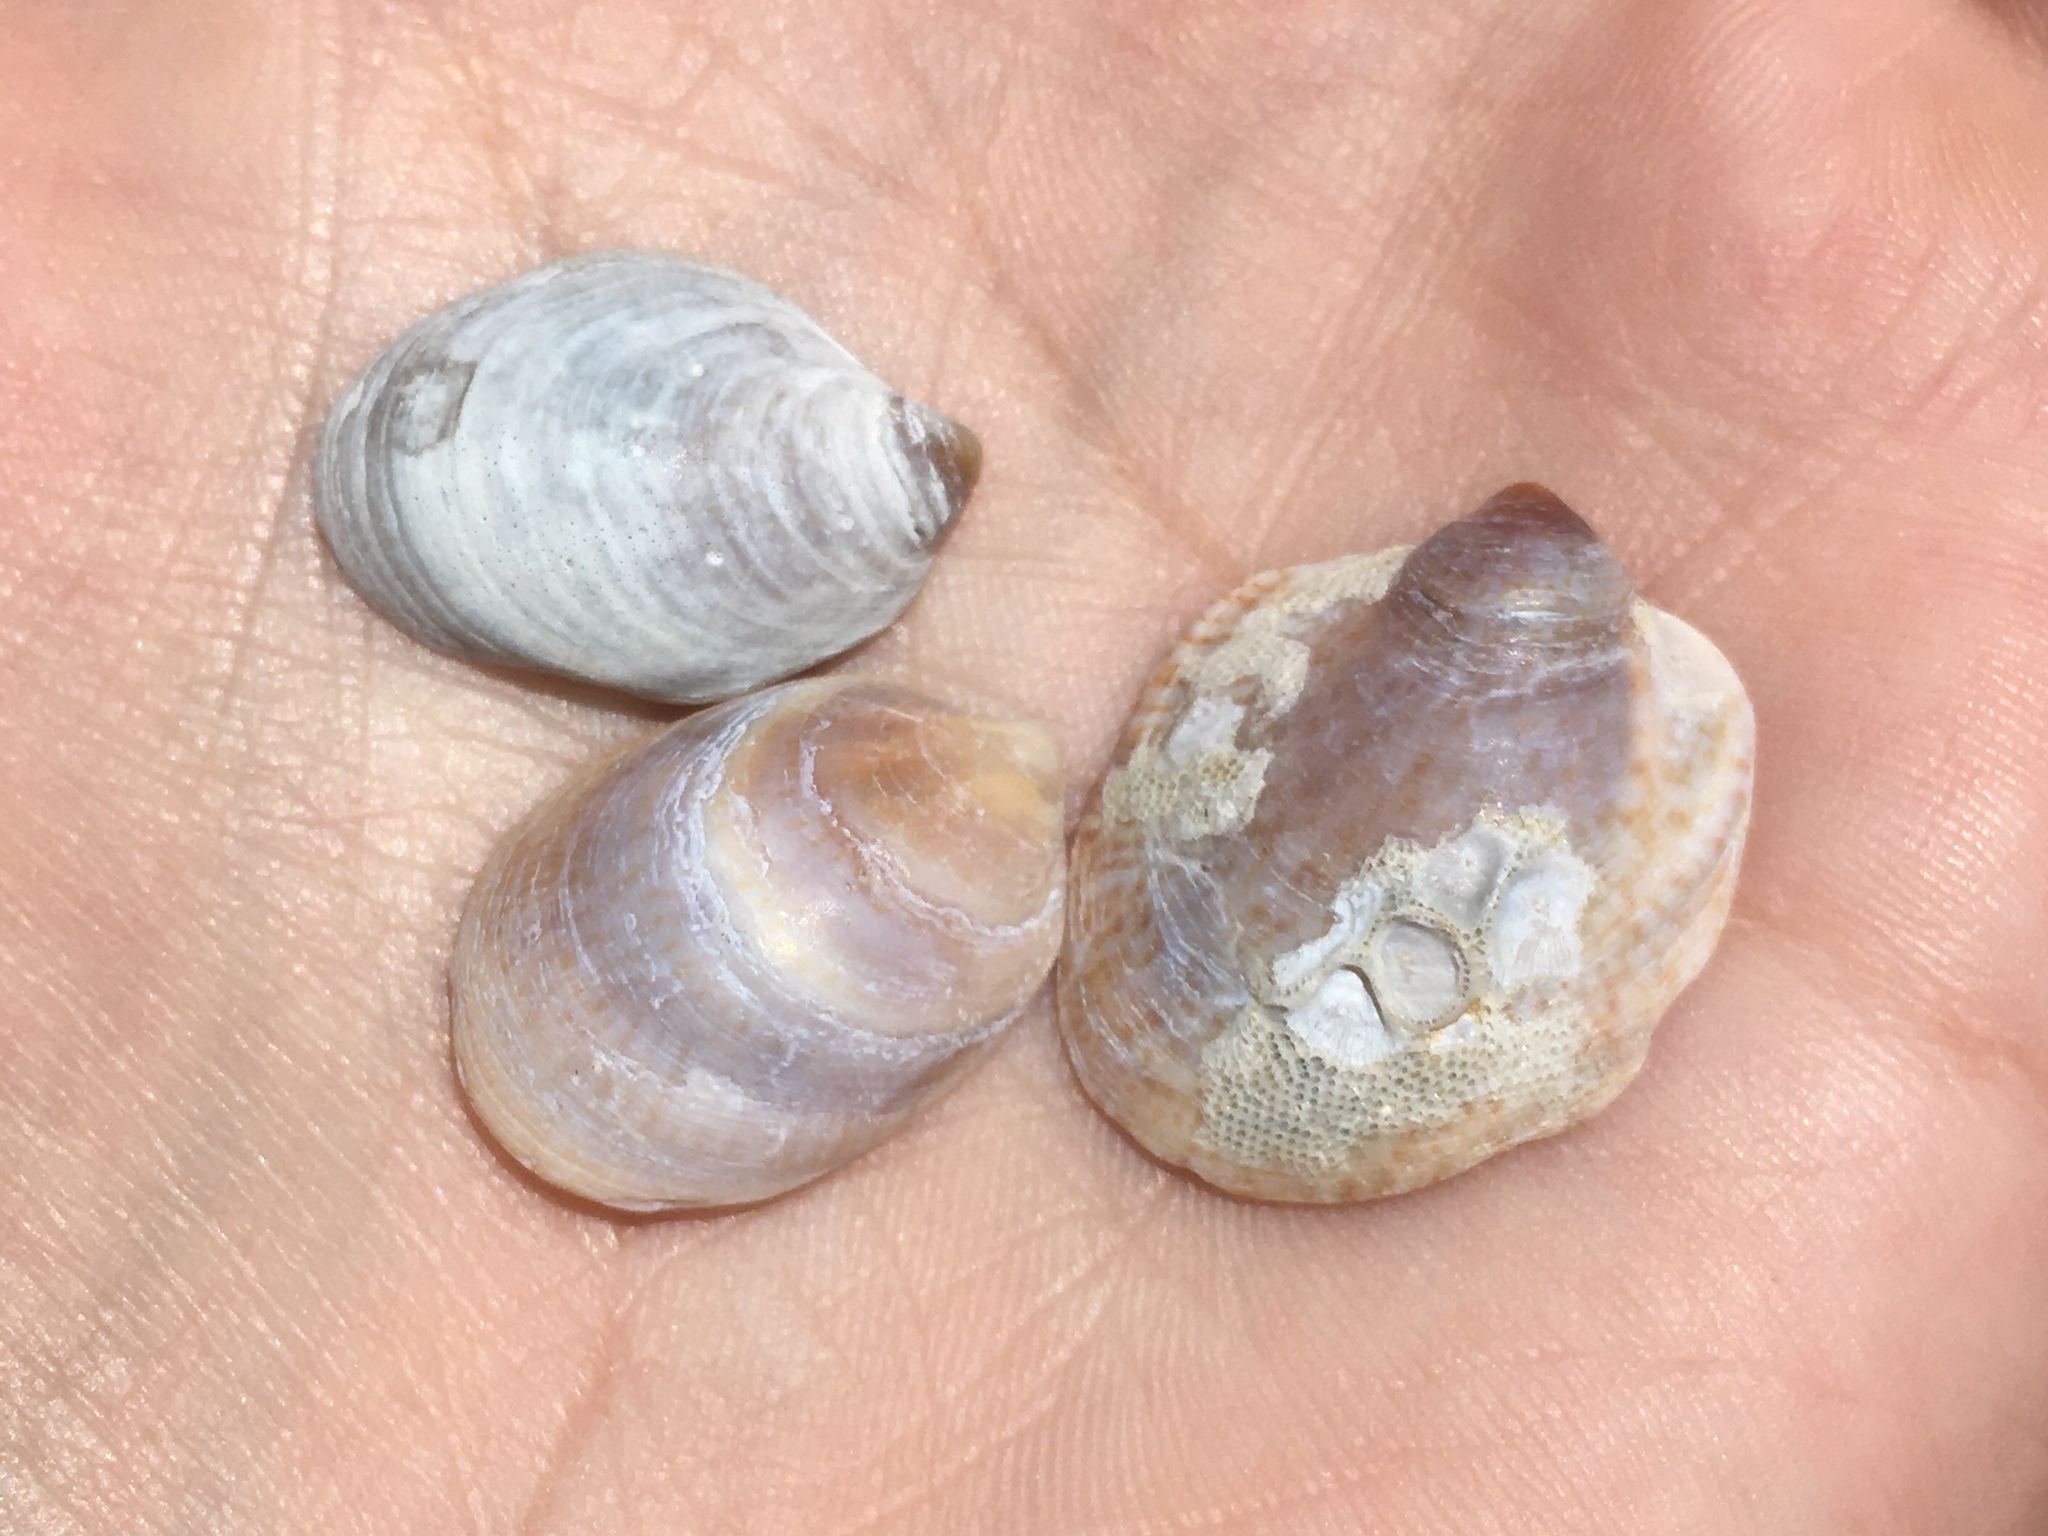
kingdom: Animalia
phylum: Mollusca
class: Gastropoda
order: Littorinimorpha
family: Calyptraeidae
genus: Crepidula
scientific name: Crepidula cachimilla
